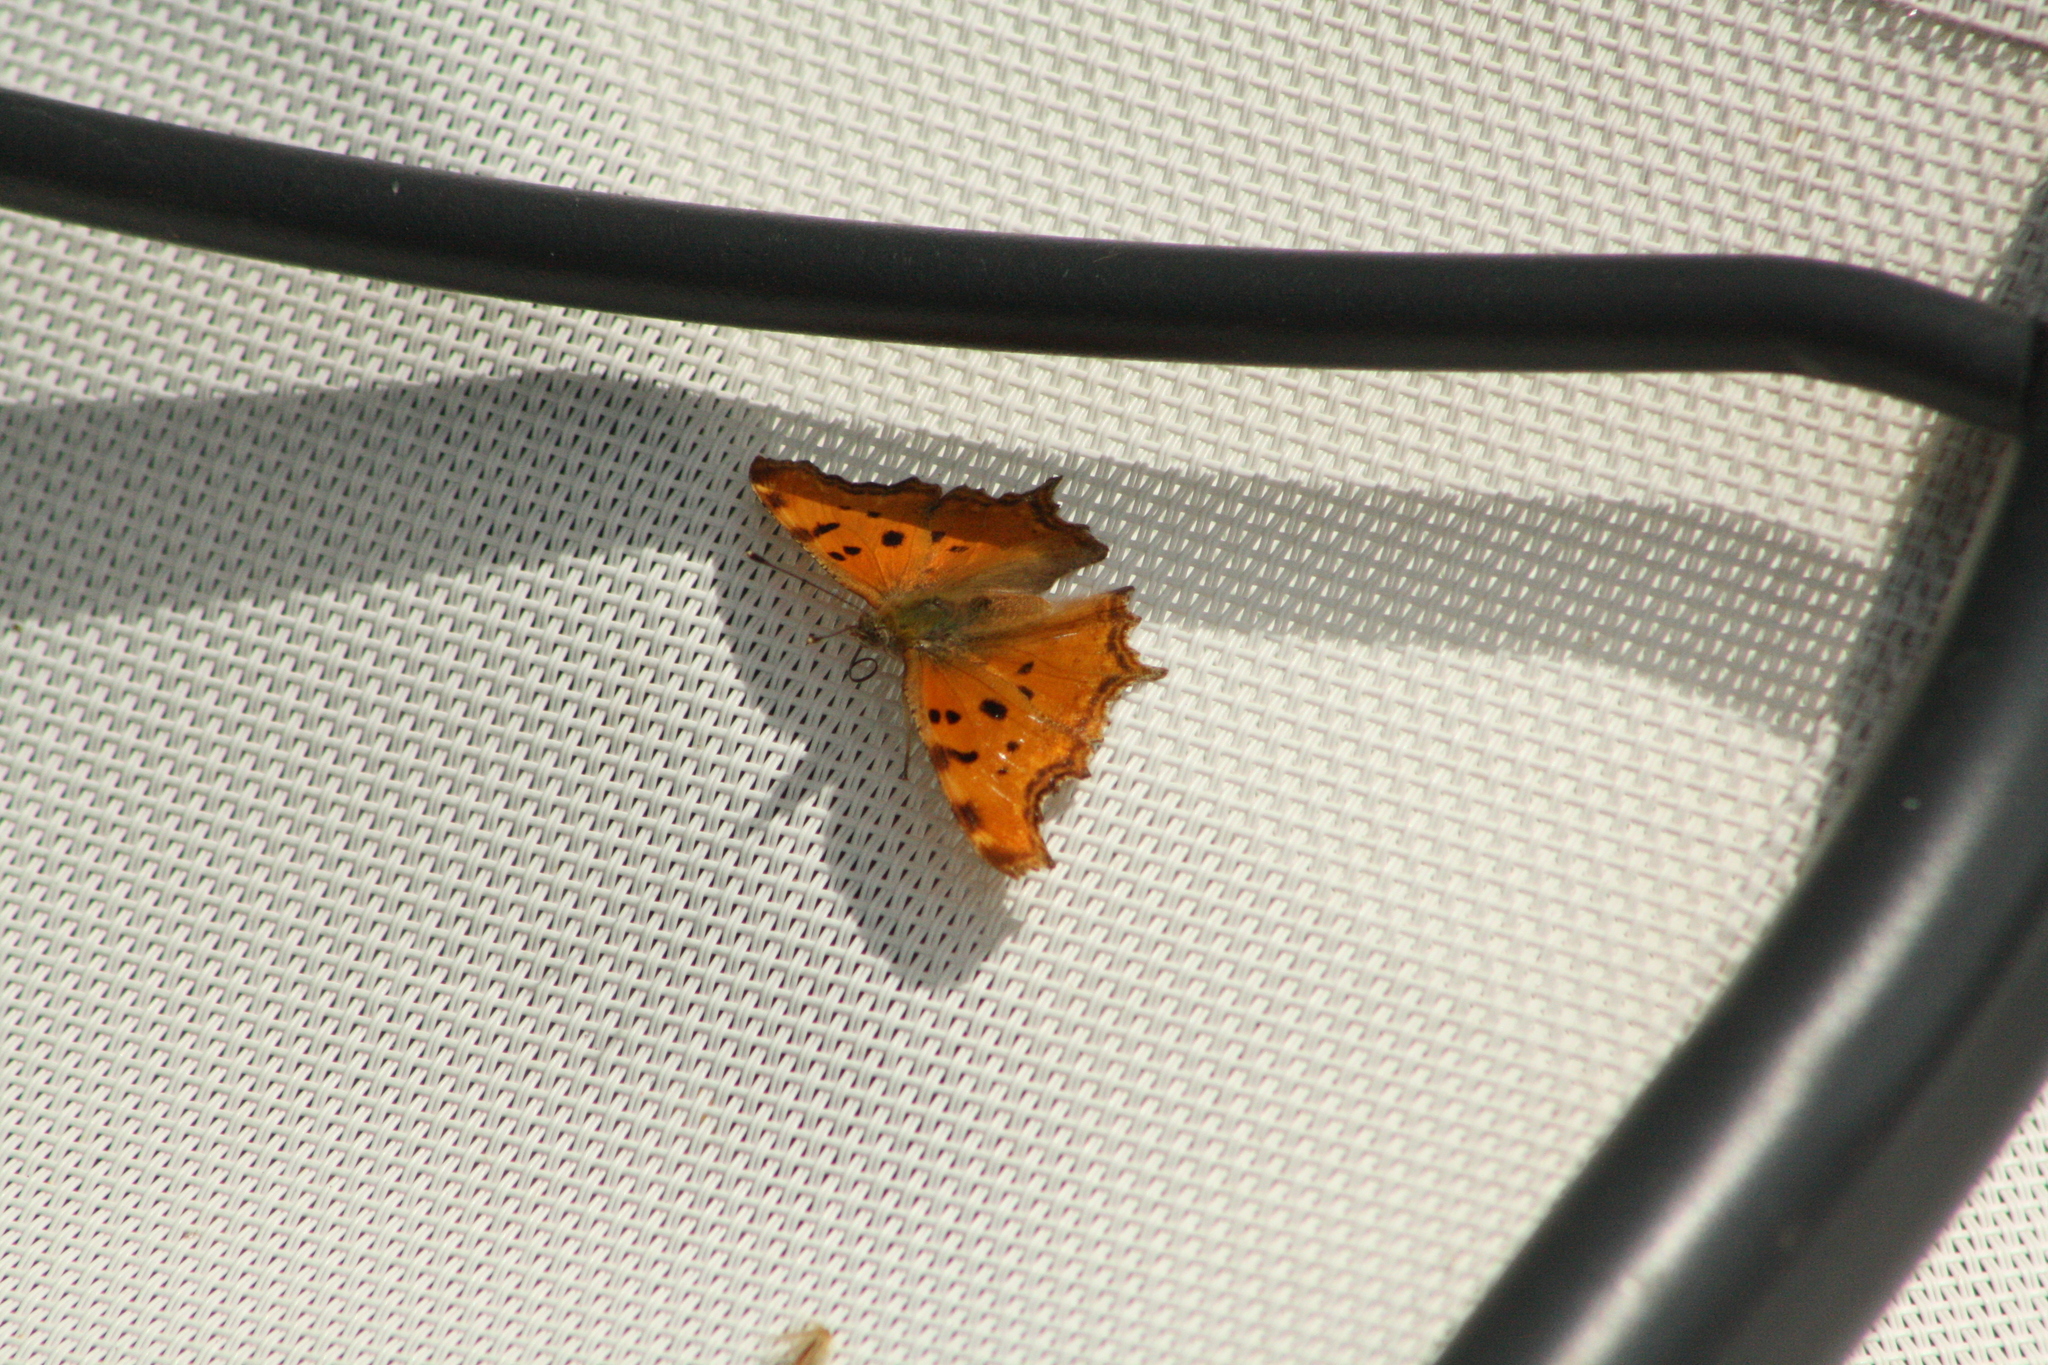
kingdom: Animalia
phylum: Arthropoda
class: Insecta
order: Lepidoptera
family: Nymphalidae
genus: Polygonia
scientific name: Polygonia egea
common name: Southern comma
